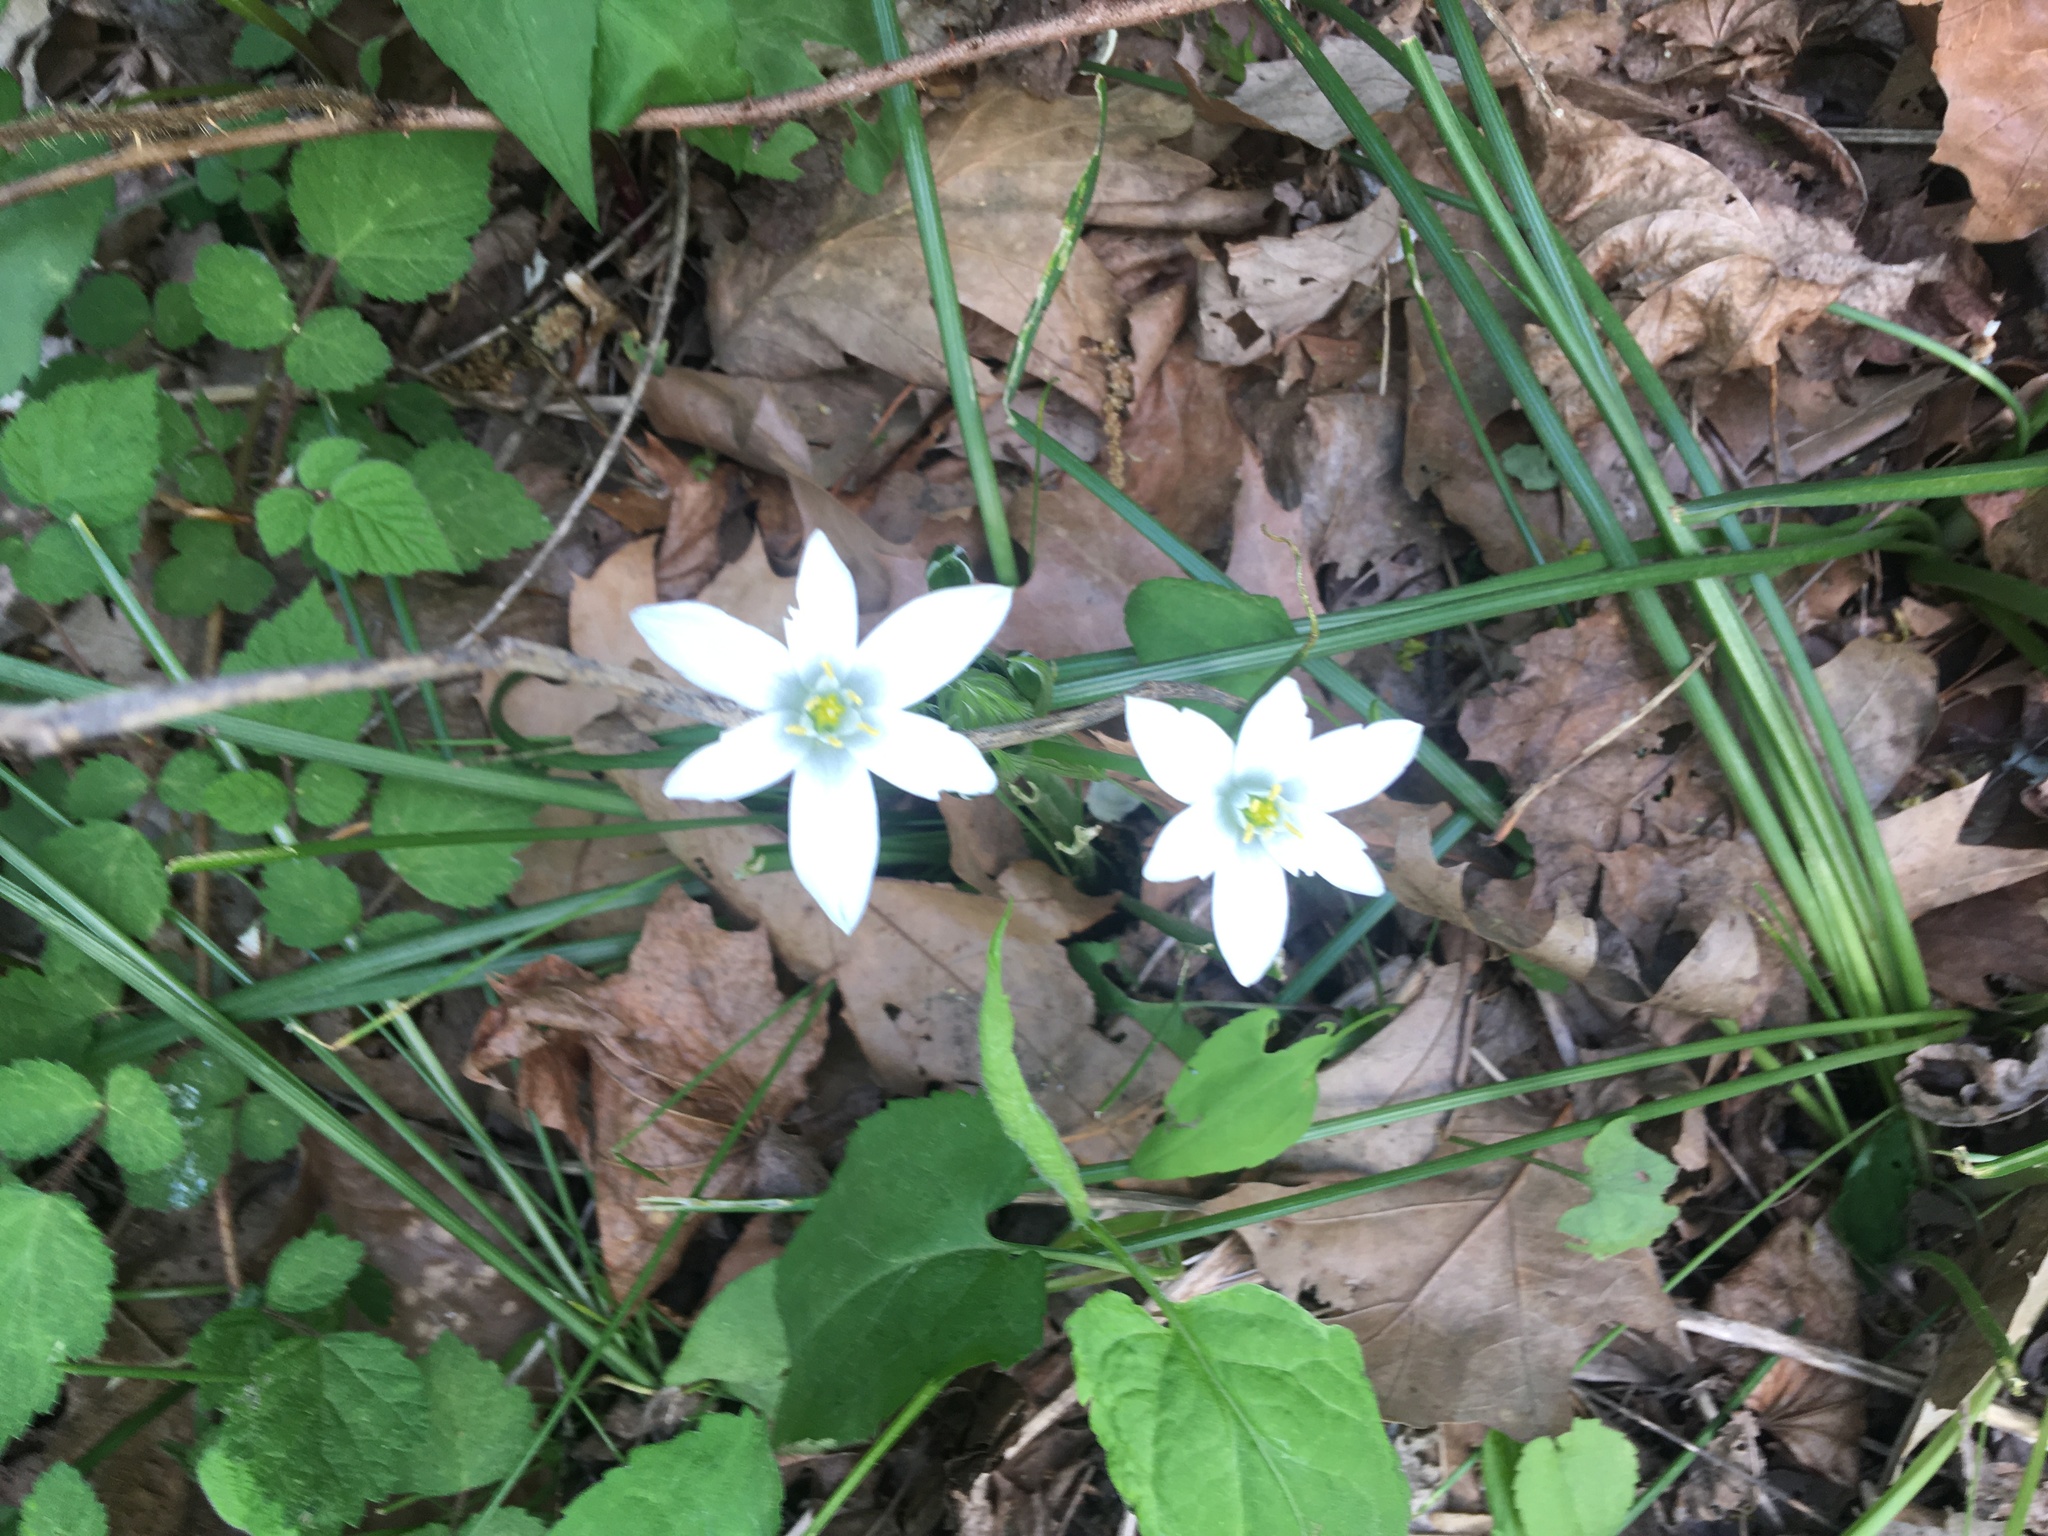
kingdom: Plantae
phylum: Tracheophyta
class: Liliopsida
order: Asparagales
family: Asparagaceae
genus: Ornithogalum
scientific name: Ornithogalum umbellatum
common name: Garden star-of-bethlehem
